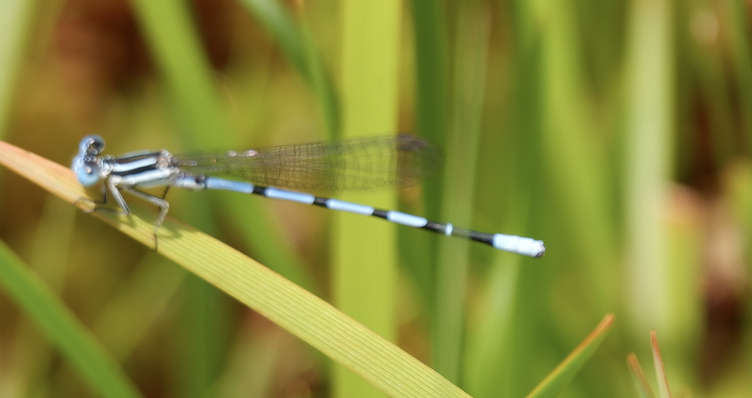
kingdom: Animalia
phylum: Arthropoda
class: Insecta
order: Odonata
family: Coenagrionidae
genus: Argia
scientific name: Argia bipunctulata
